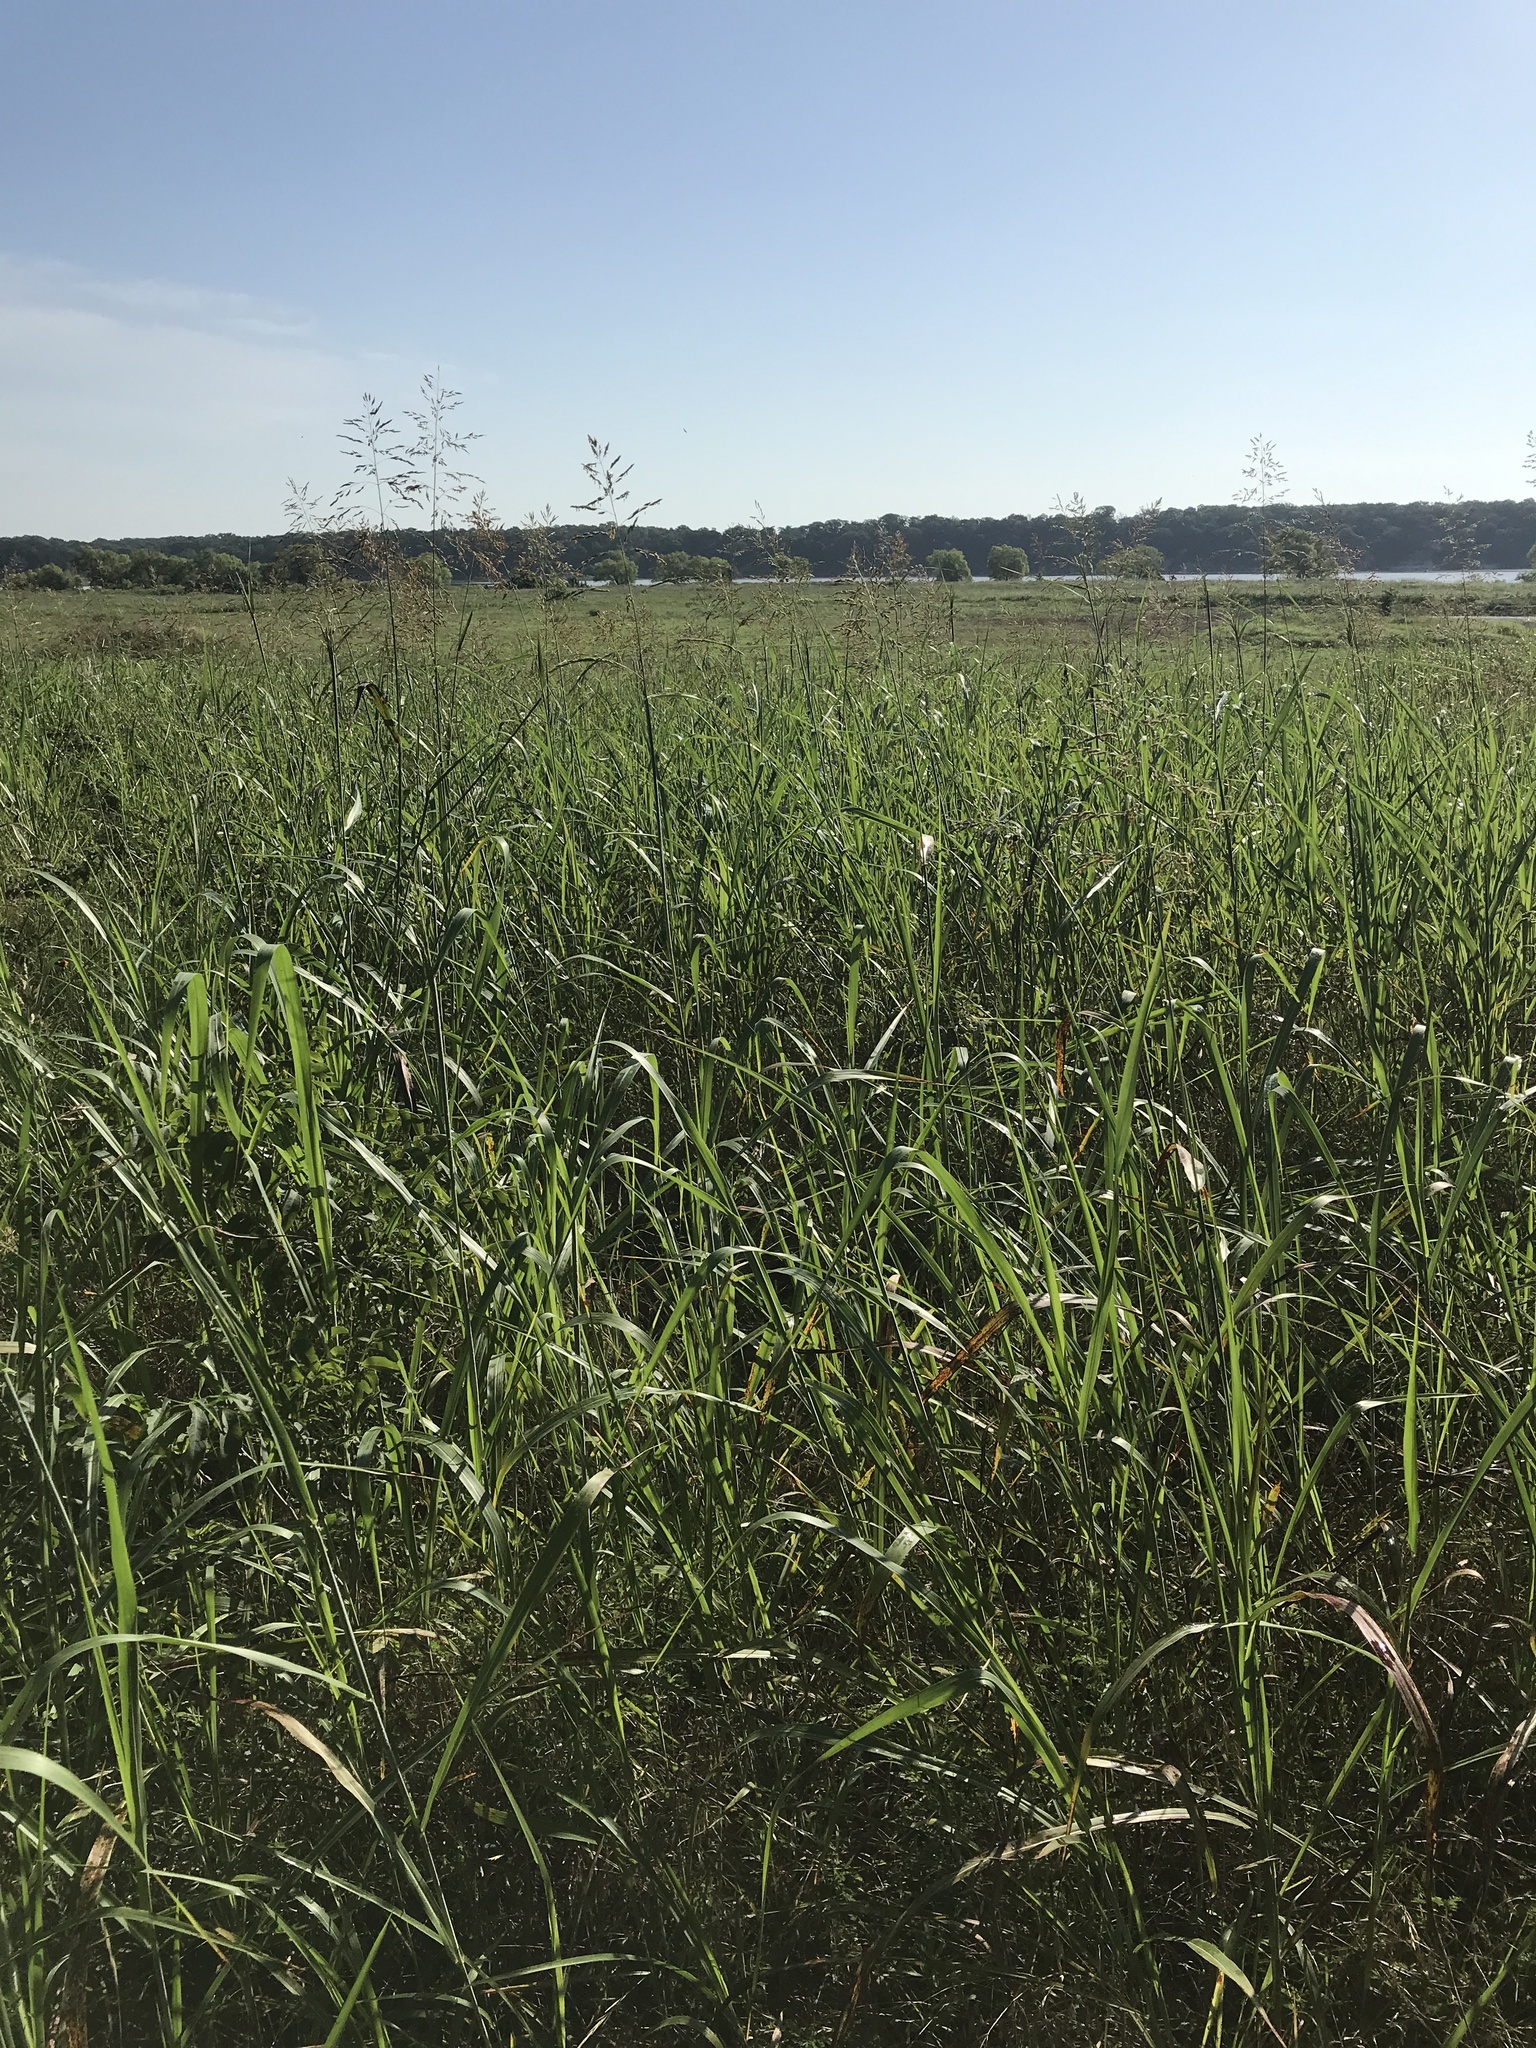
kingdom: Plantae
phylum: Tracheophyta
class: Liliopsida
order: Poales
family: Poaceae
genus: Sorghum
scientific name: Sorghum halepense
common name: Johnson-grass
